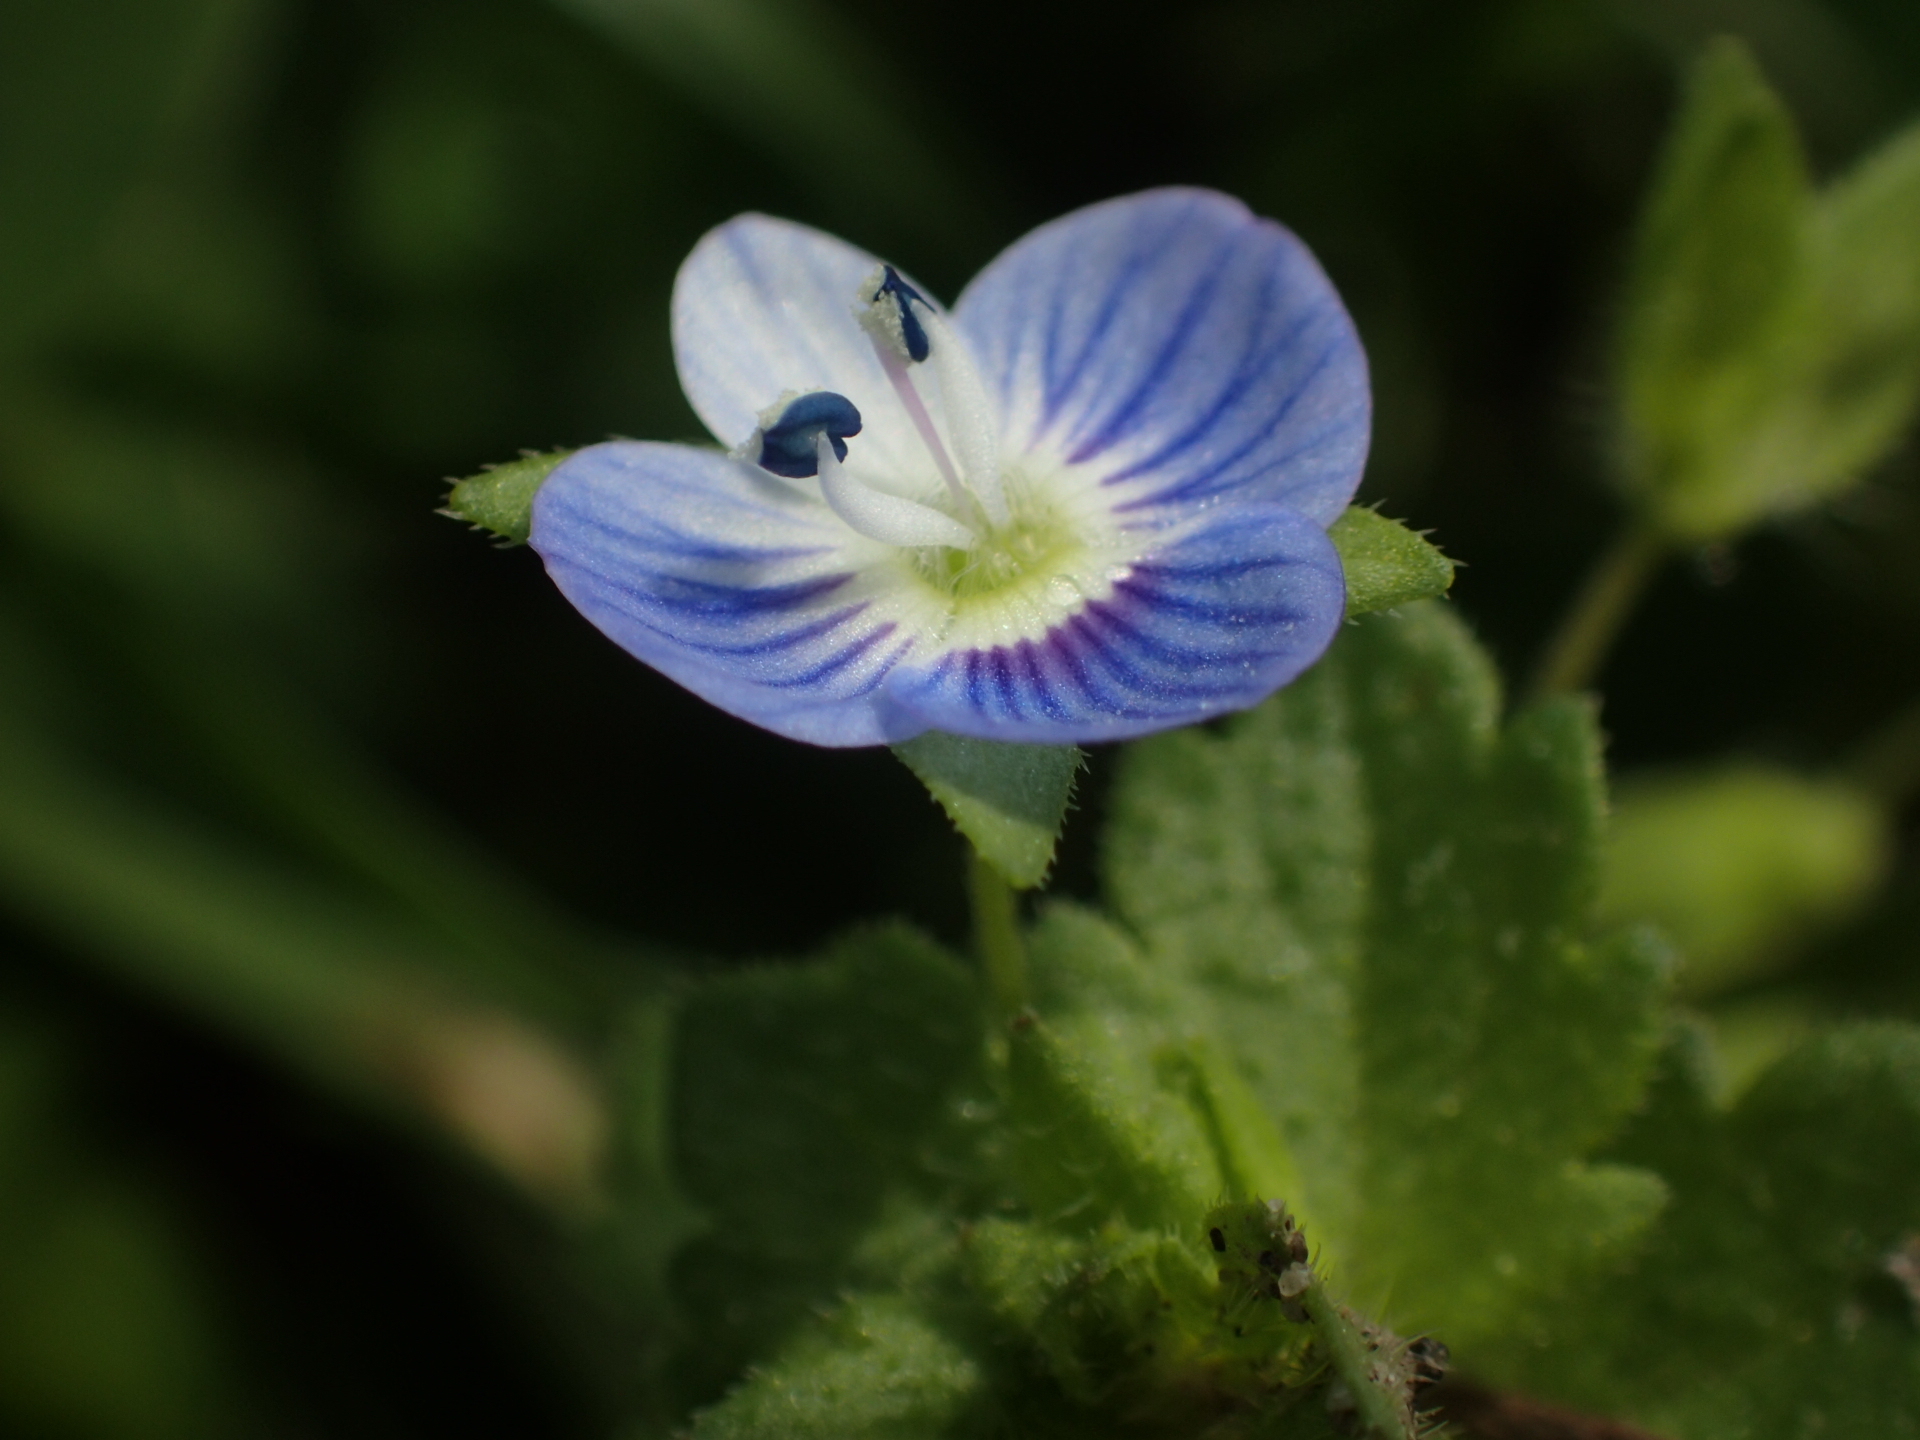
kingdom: Plantae
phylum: Tracheophyta
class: Magnoliopsida
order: Lamiales
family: Plantaginaceae
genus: Veronica
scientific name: Veronica persica
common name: Common field-speedwell
